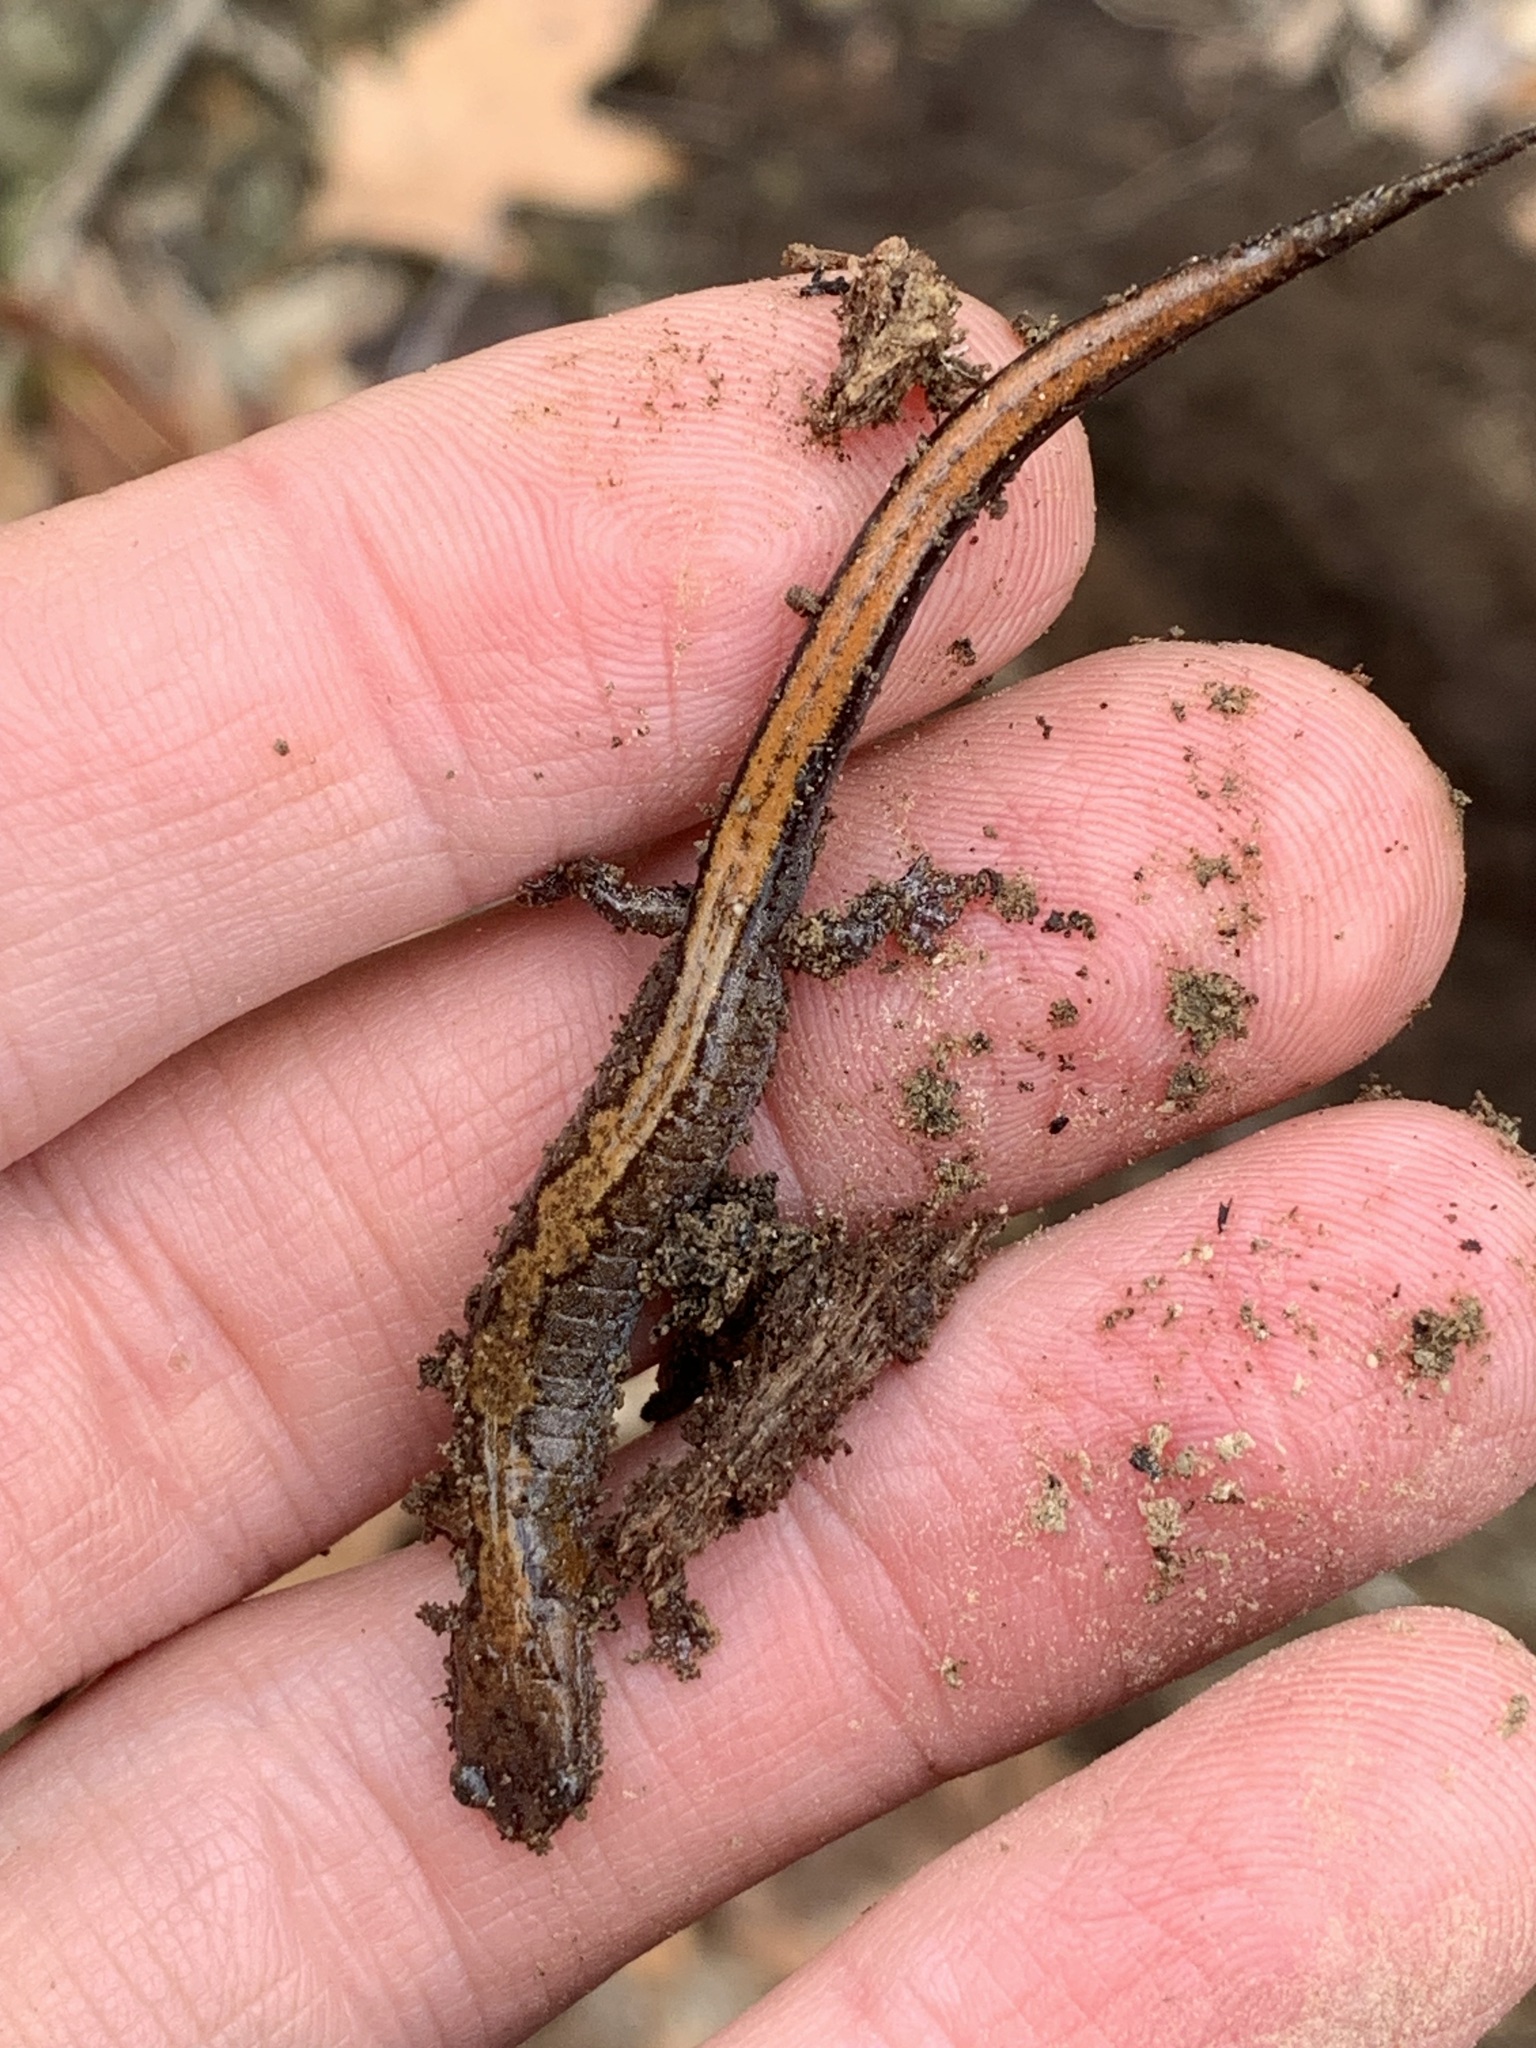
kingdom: Animalia
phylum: Chordata
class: Amphibia
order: Caudata
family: Plethodontidae
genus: Plethodon
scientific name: Plethodon dorsalis
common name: Northern zigzag salamander
